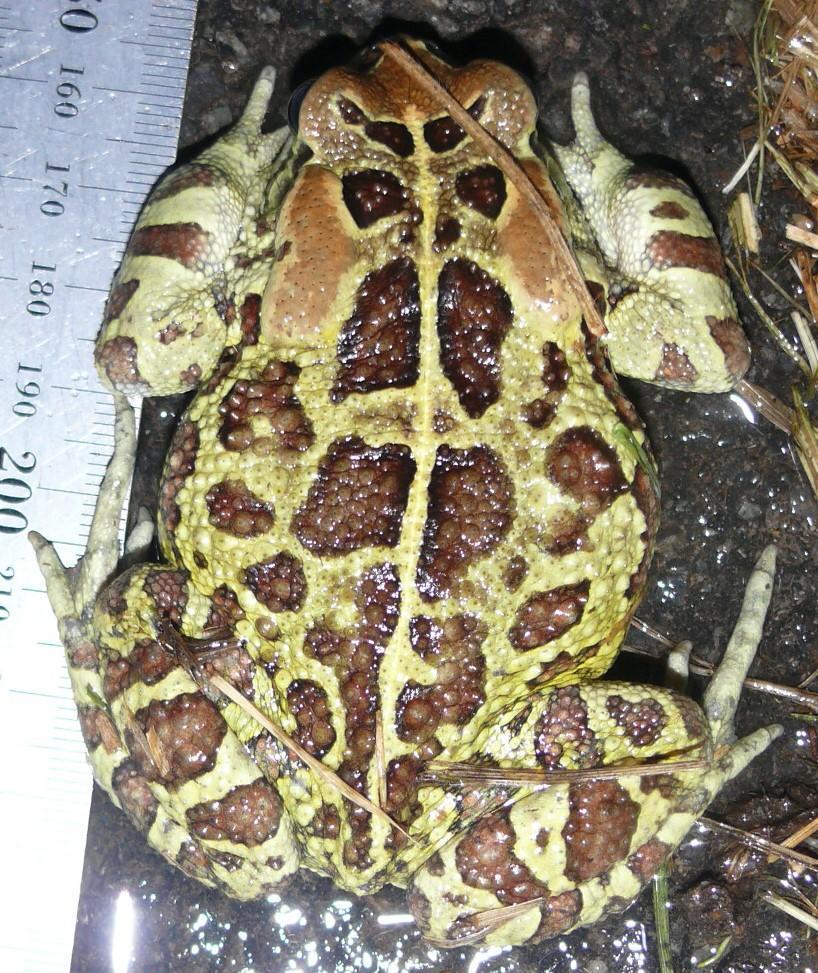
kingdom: Animalia
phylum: Chordata
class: Amphibia
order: Anura
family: Bufonidae
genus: Sclerophrys
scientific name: Sclerophrys pantherina
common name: Panther toad
